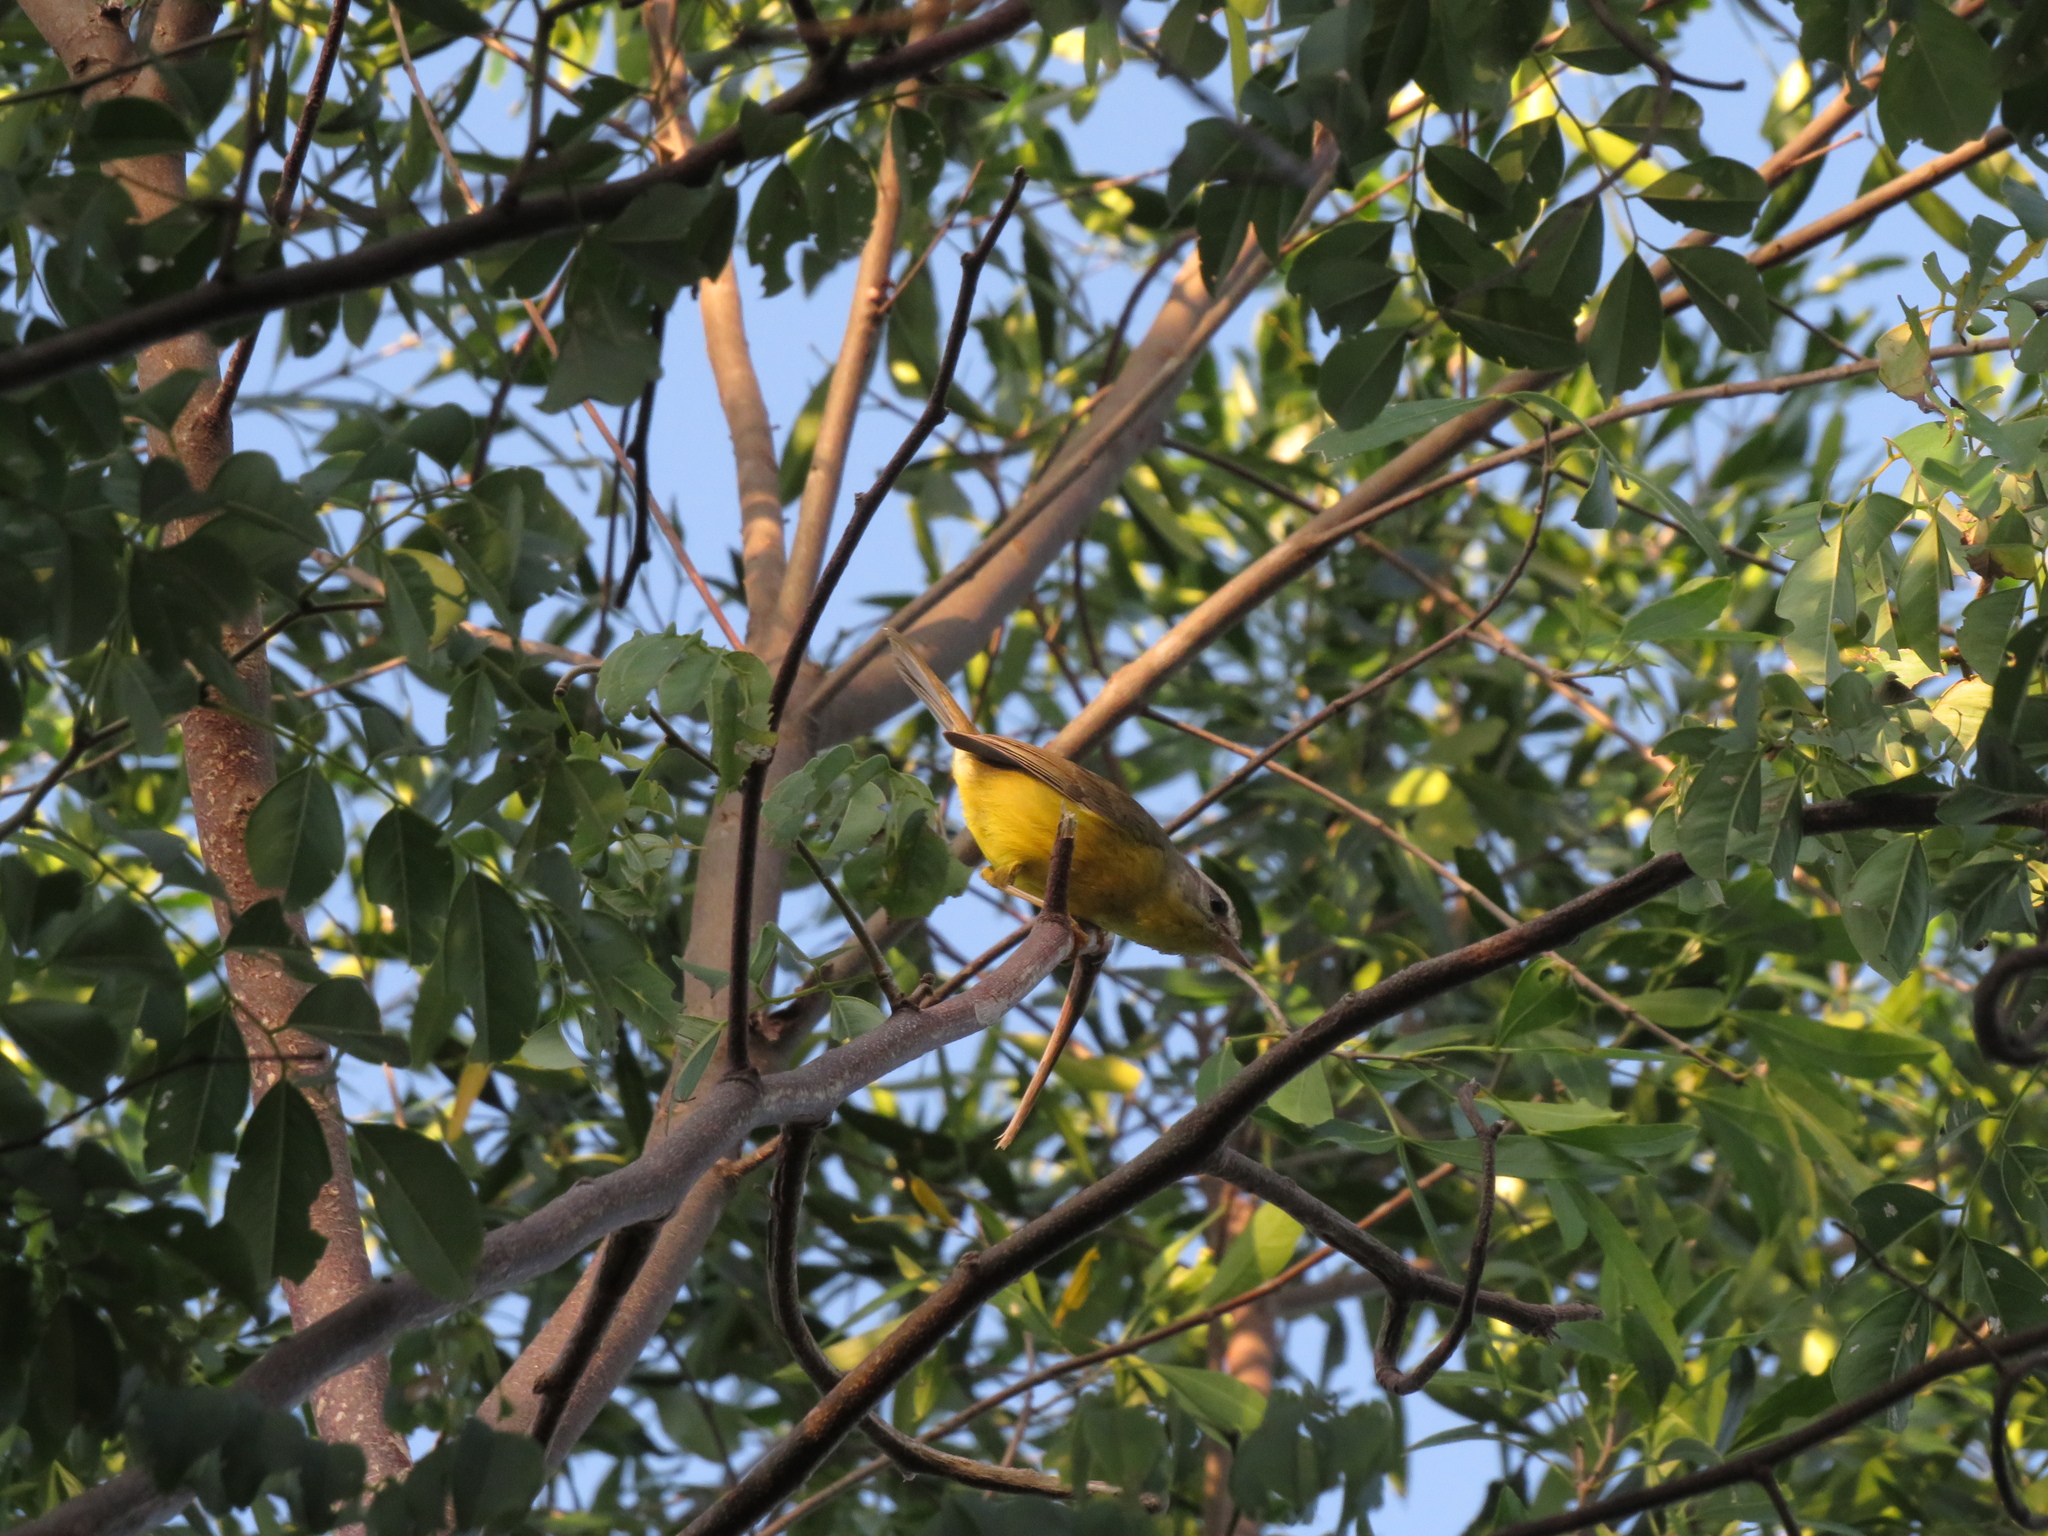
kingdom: Animalia
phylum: Chordata
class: Aves
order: Passeriformes
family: Parulidae
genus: Basileuterus
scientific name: Basileuterus culicivorus
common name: Golden-crowned warbler
